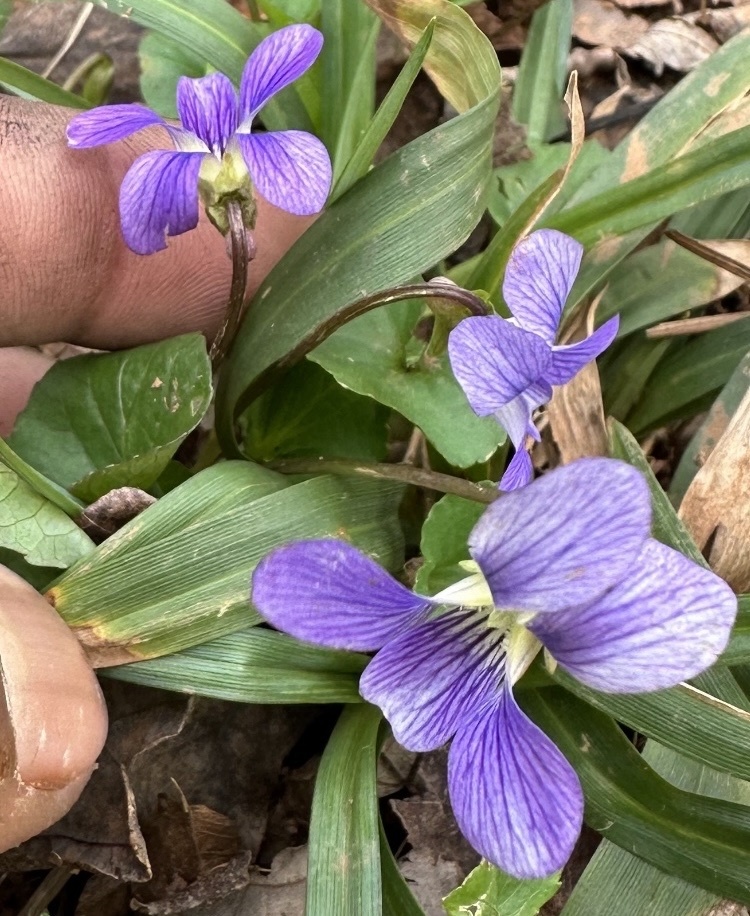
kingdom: Plantae
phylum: Tracheophyta
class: Magnoliopsida
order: Malpighiales
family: Violaceae
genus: Viola
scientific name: Viola cucullata
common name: Marsh blue violet
